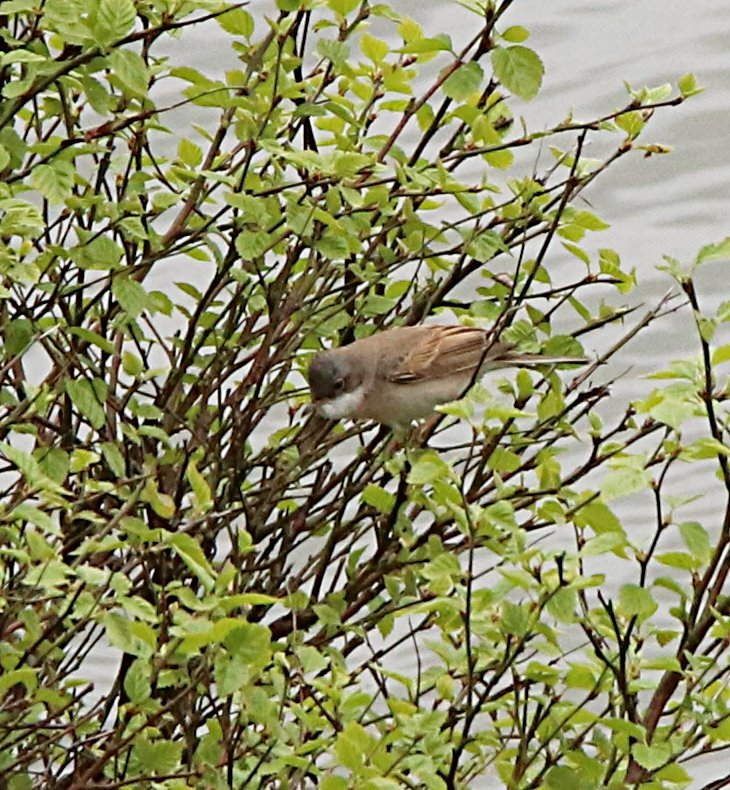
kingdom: Animalia
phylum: Chordata
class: Aves
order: Passeriformes
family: Sylviidae
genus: Sylvia
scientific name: Sylvia communis
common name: Common whitethroat
